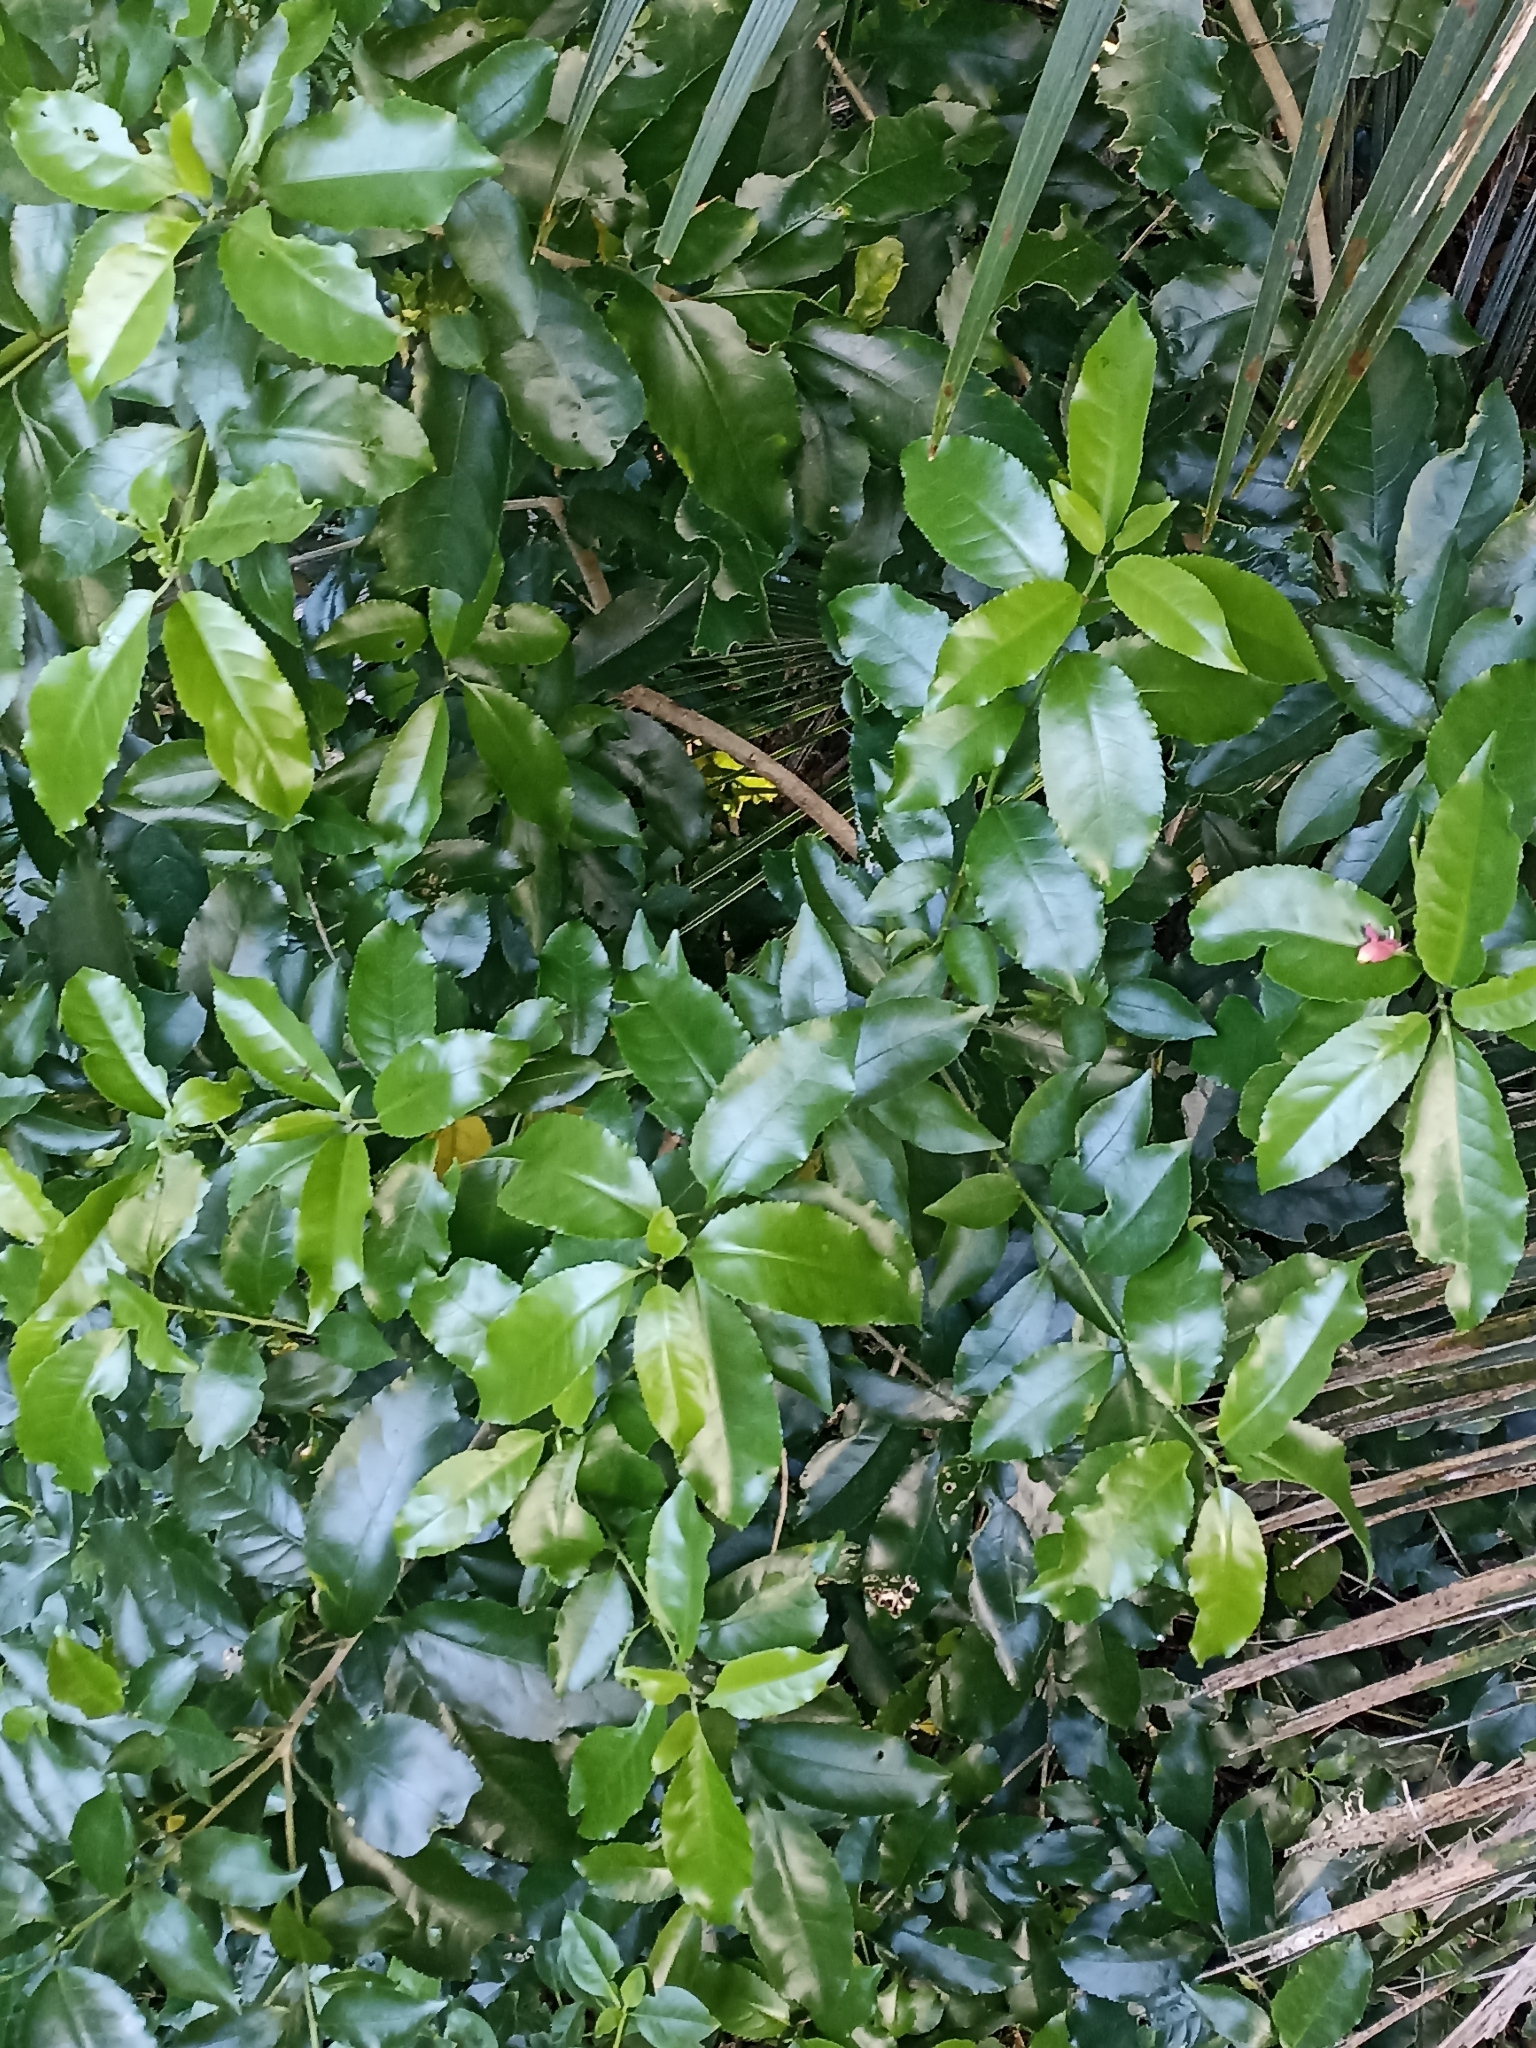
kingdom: Plantae
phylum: Tracheophyta
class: Magnoliopsida
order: Malpighiales
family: Violaceae
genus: Melicytus
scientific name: Melicytus ramiflorus
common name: Mahoe
